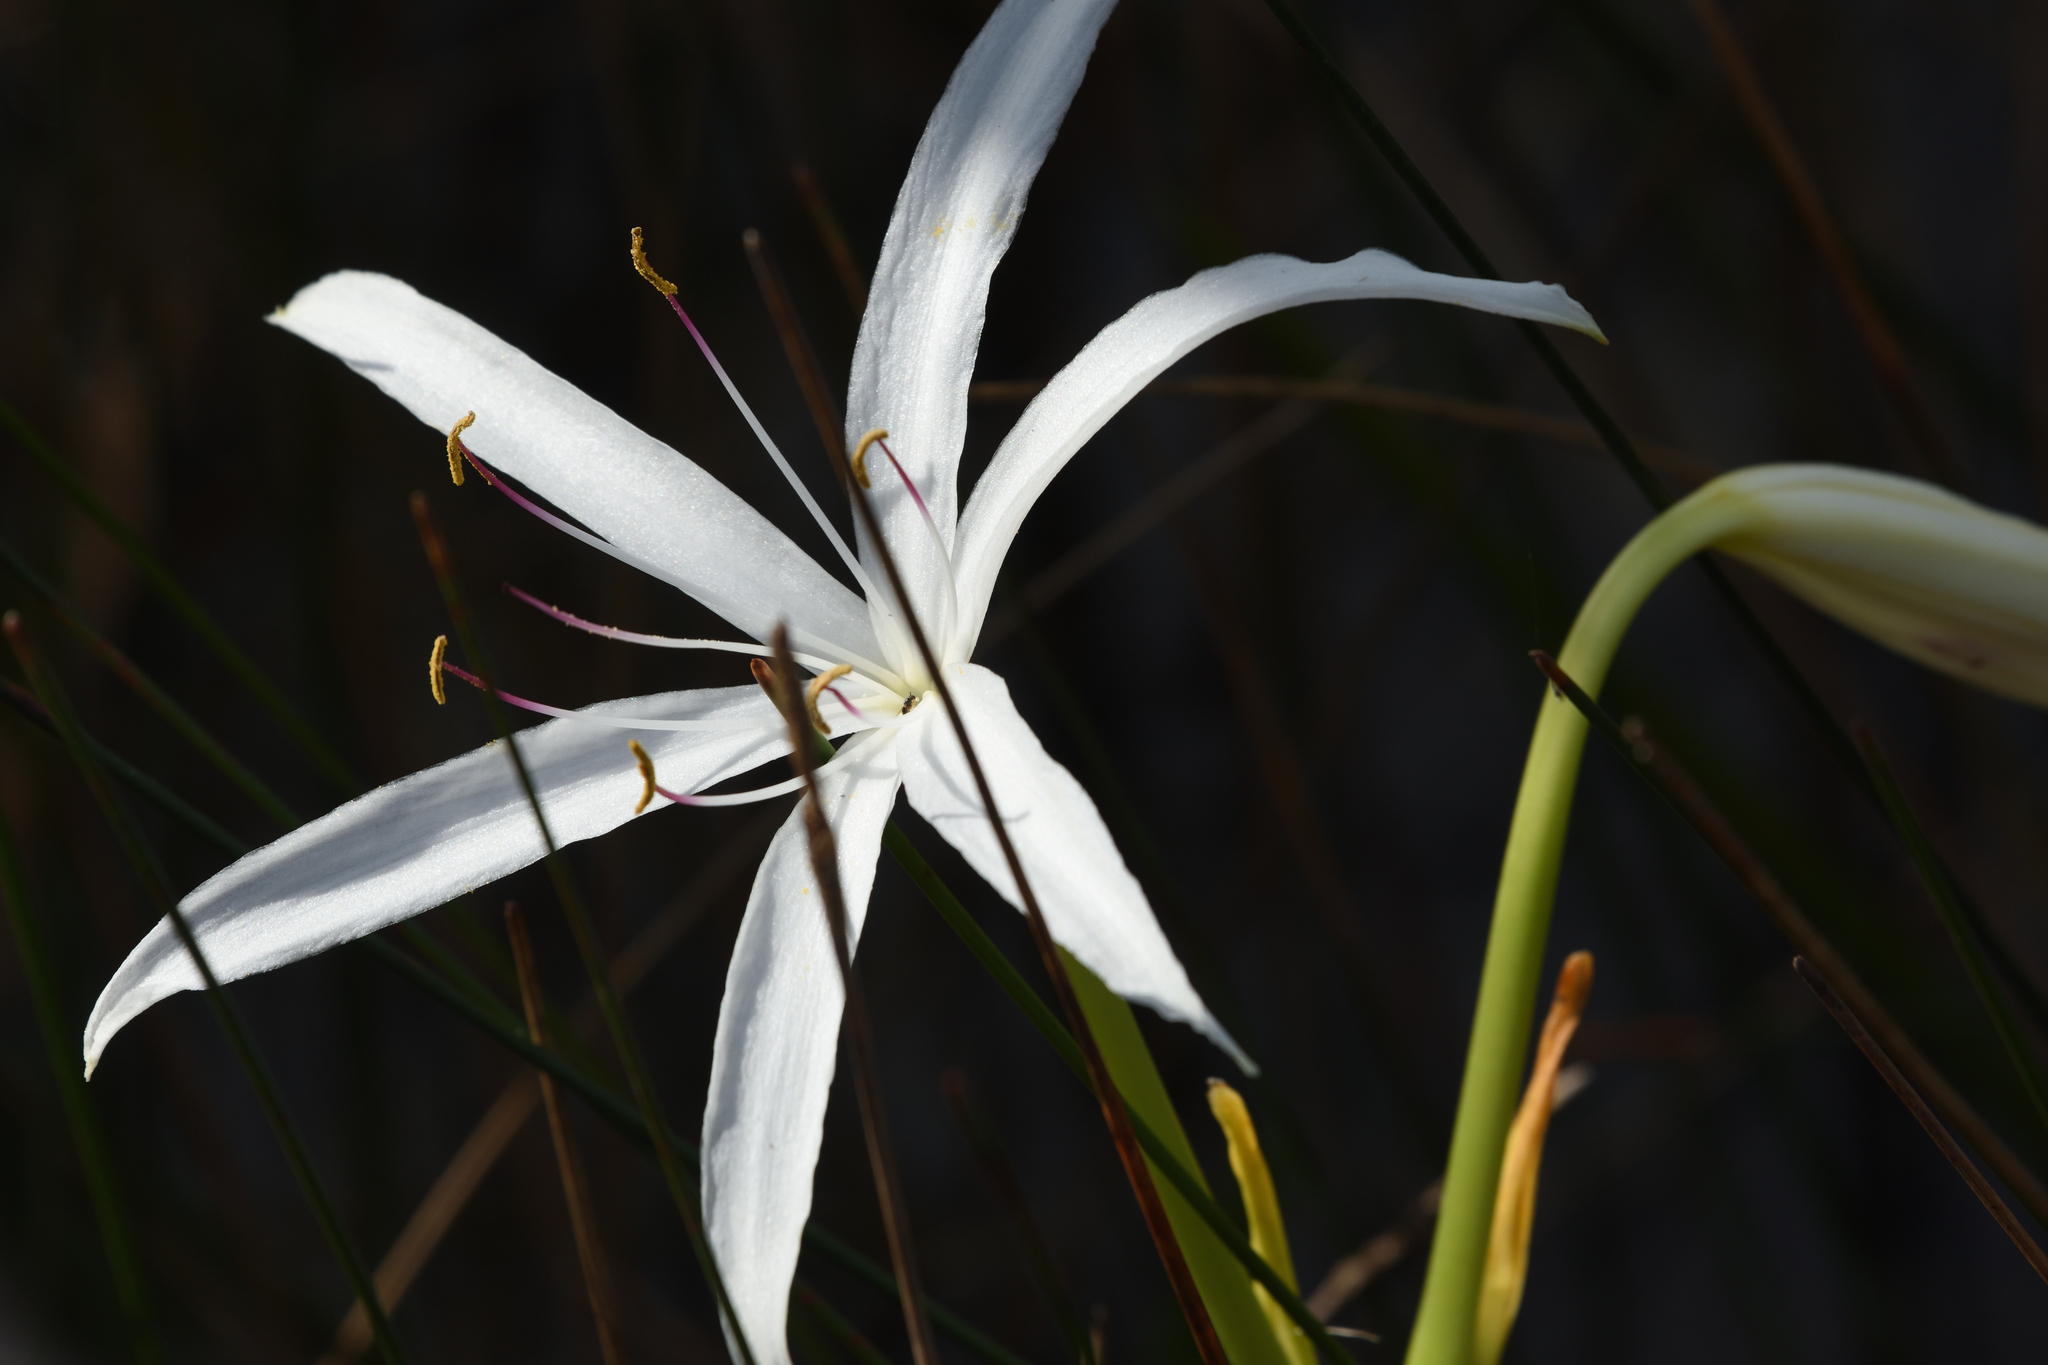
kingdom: Plantae
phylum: Tracheophyta
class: Liliopsida
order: Asparagales
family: Amaryllidaceae
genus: Crinum
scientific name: Crinum americanum
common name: Florida swamp-lily
